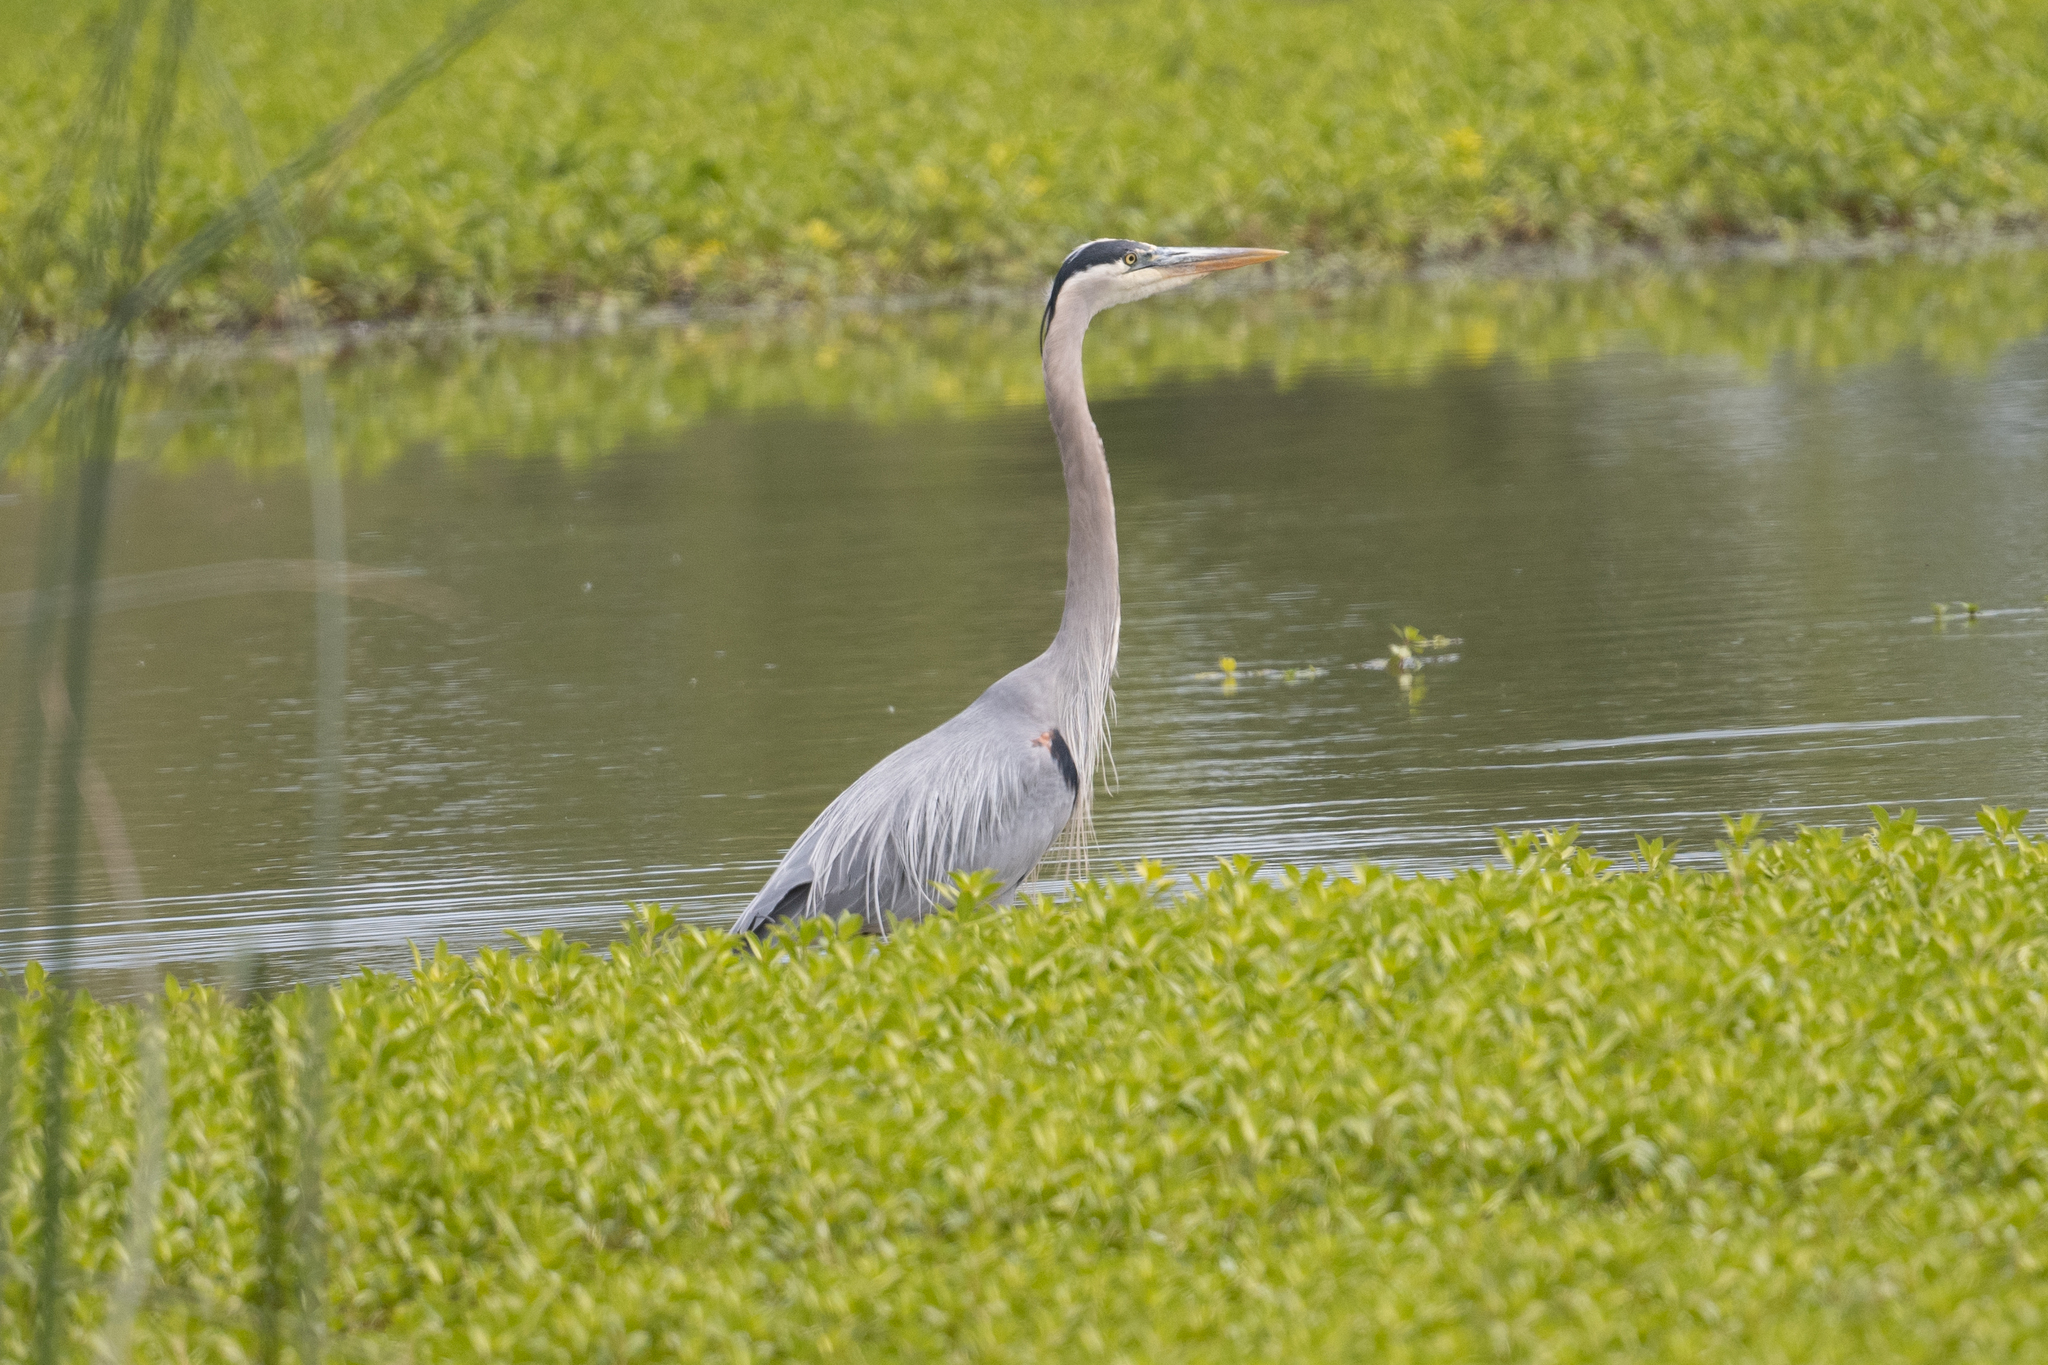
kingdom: Animalia
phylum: Chordata
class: Aves
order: Pelecaniformes
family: Ardeidae
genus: Ardea
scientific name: Ardea herodias
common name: Great blue heron
